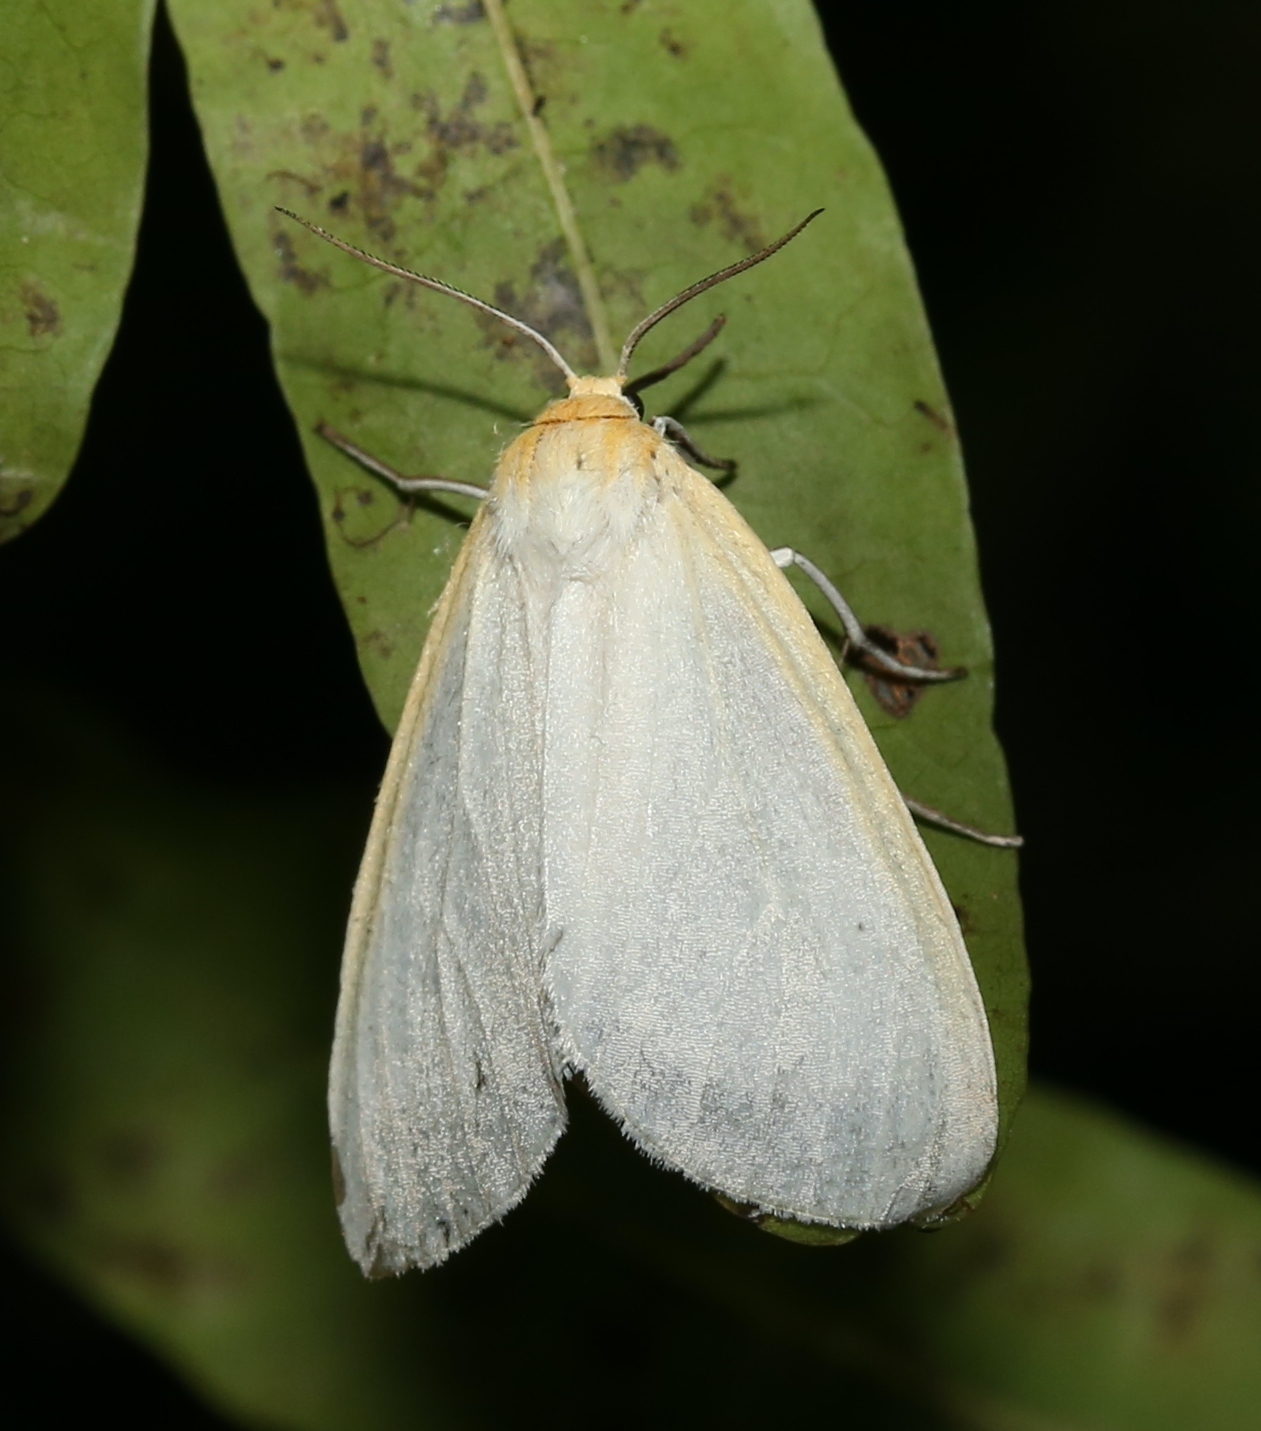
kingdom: Animalia
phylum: Arthropoda
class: Insecta
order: Lepidoptera
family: Erebidae
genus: Cycnia
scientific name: Cycnia tenera
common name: Delicate cycnia moth
